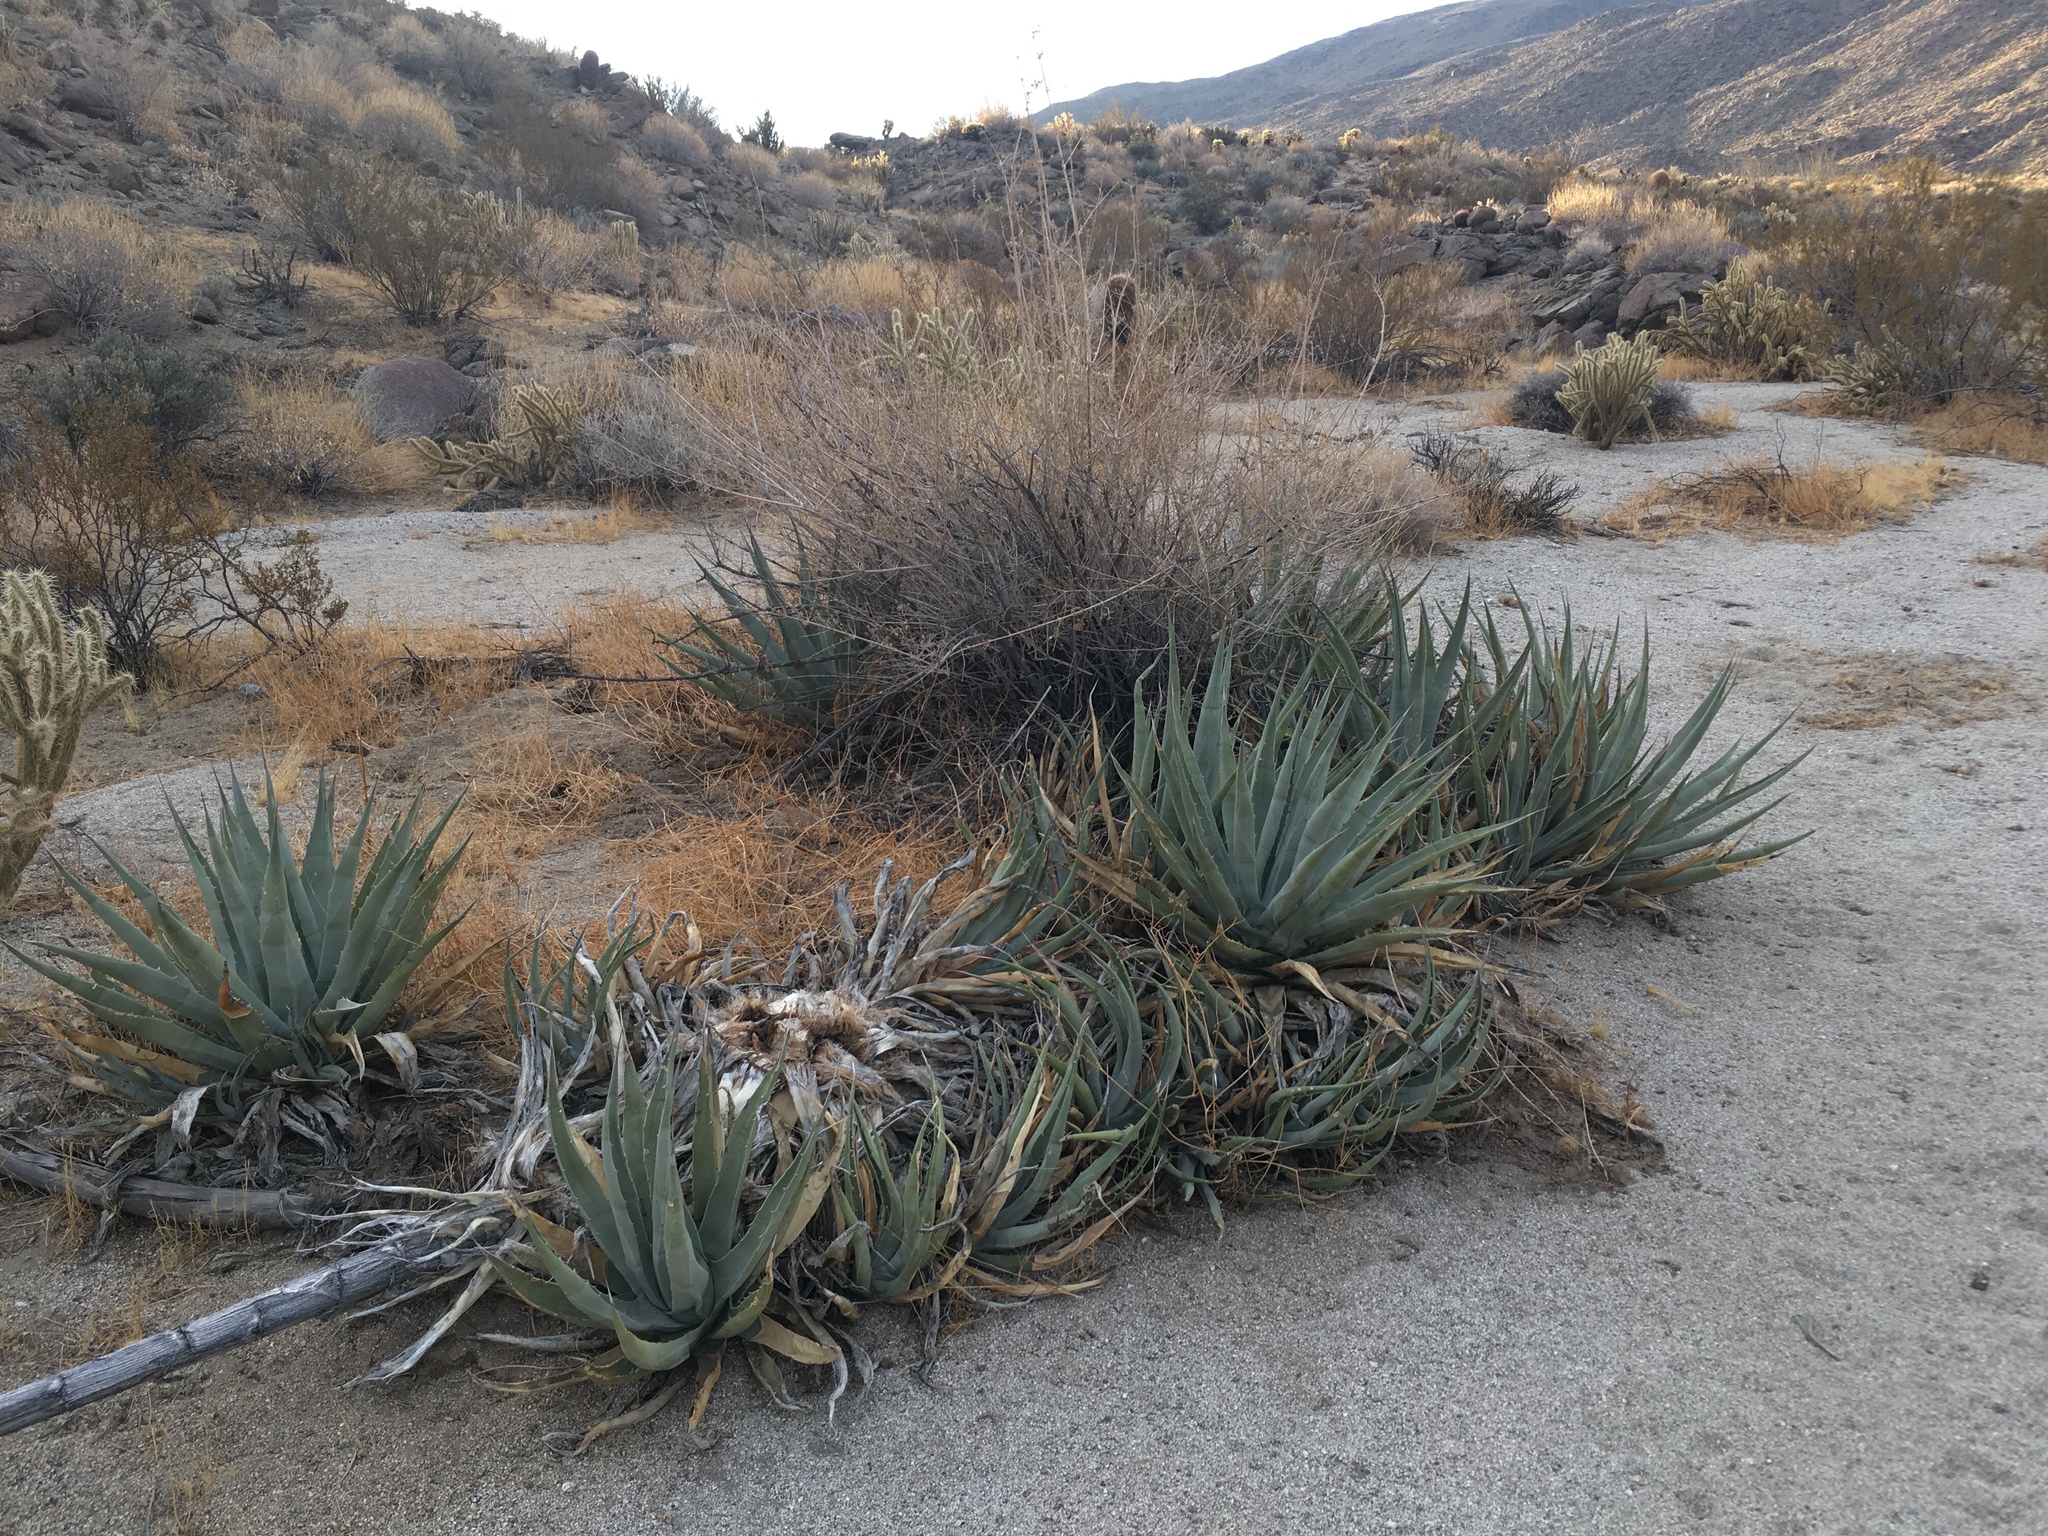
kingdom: Plantae
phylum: Tracheophyta
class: Liliopsida
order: Asparagales
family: Asparagaceae
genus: Agave
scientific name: Agave deserti
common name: Desert agave
